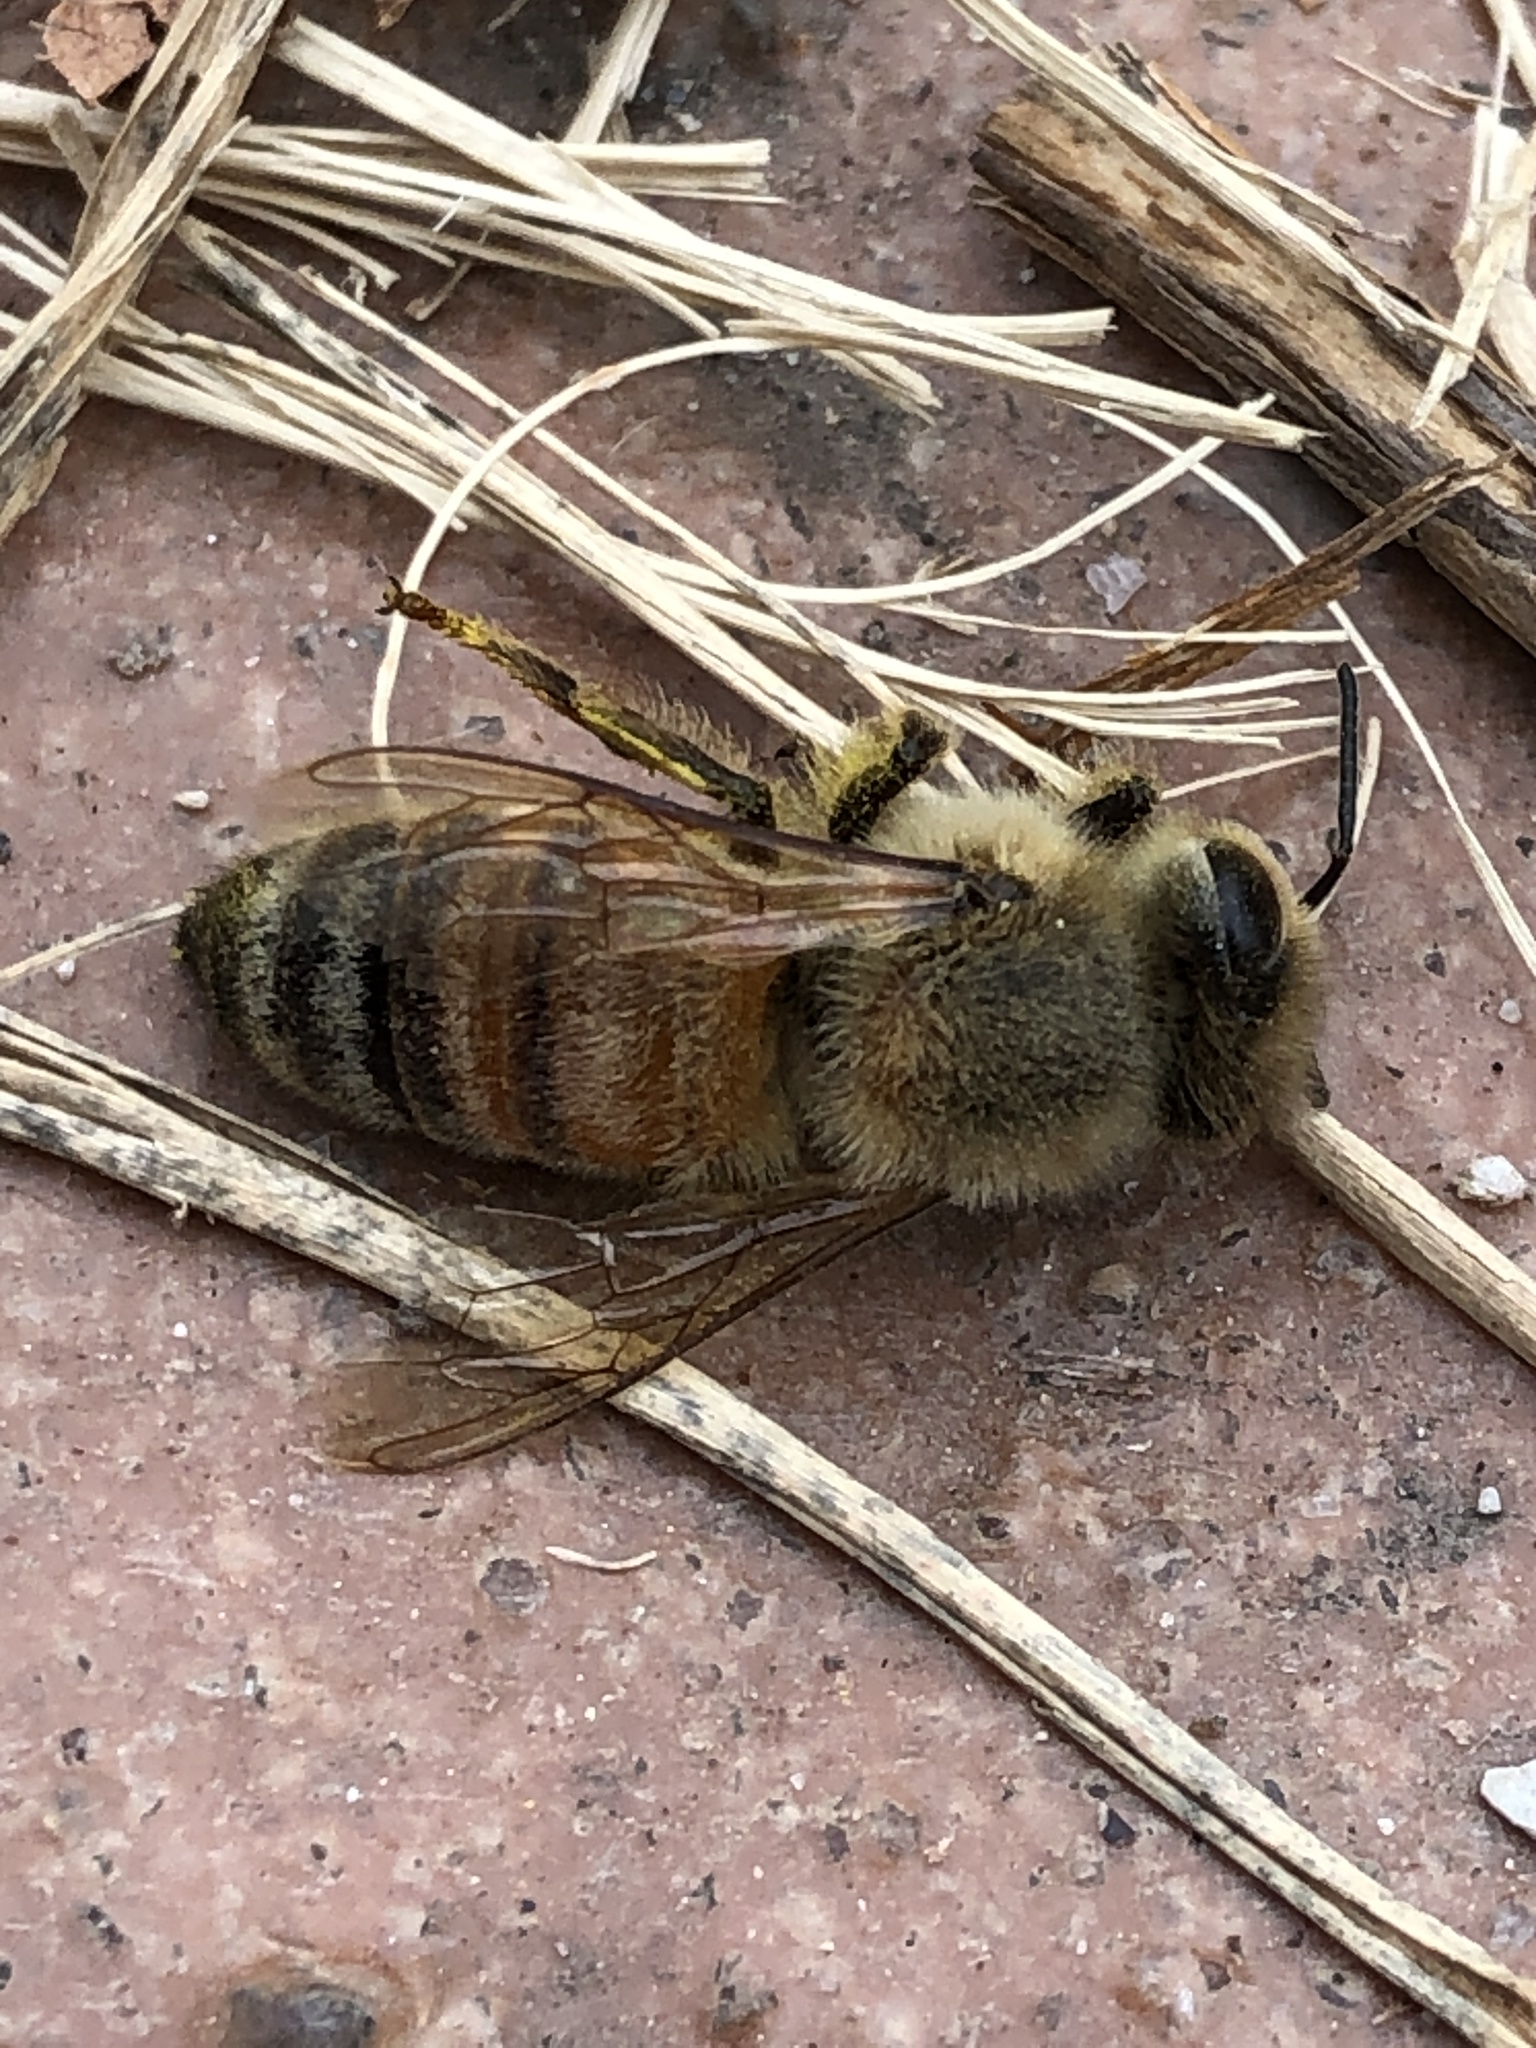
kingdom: Animalia
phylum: Arthropoda
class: Insecta
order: Hymenoptera
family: Apidae
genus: Apis
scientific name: Apis mellifera
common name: Honey bee
